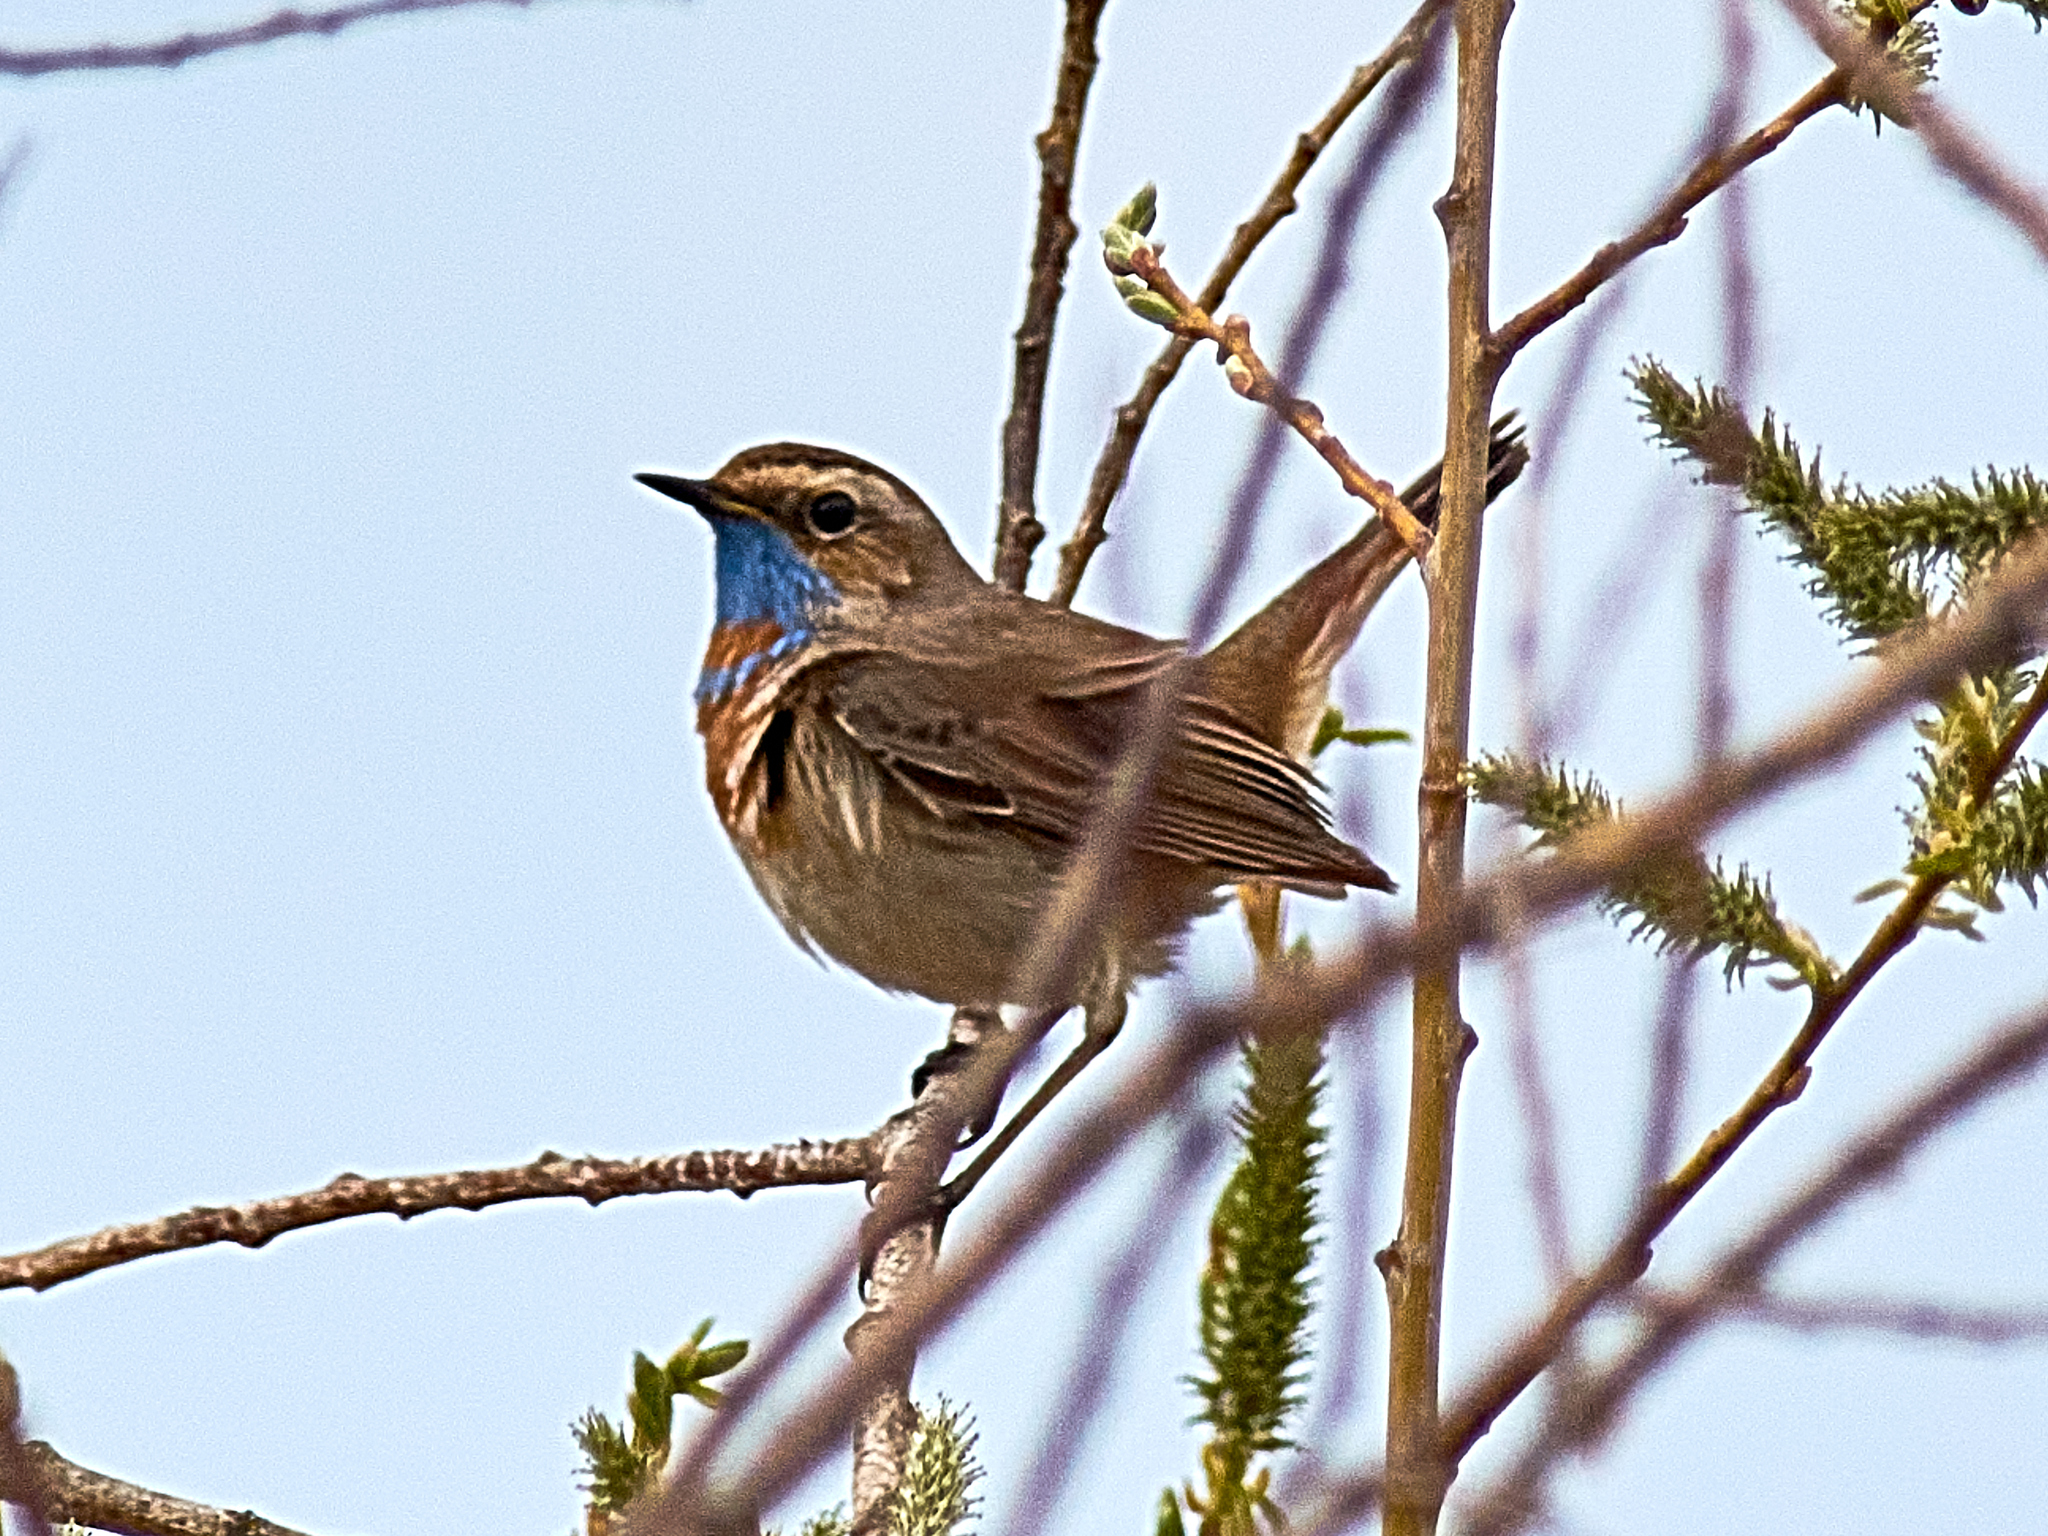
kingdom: Animalia
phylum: Chordata
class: Aves
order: Passeriformes
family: Muscicapidae
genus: Luscinia
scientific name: Luscinia svecica
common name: Bluethroat
